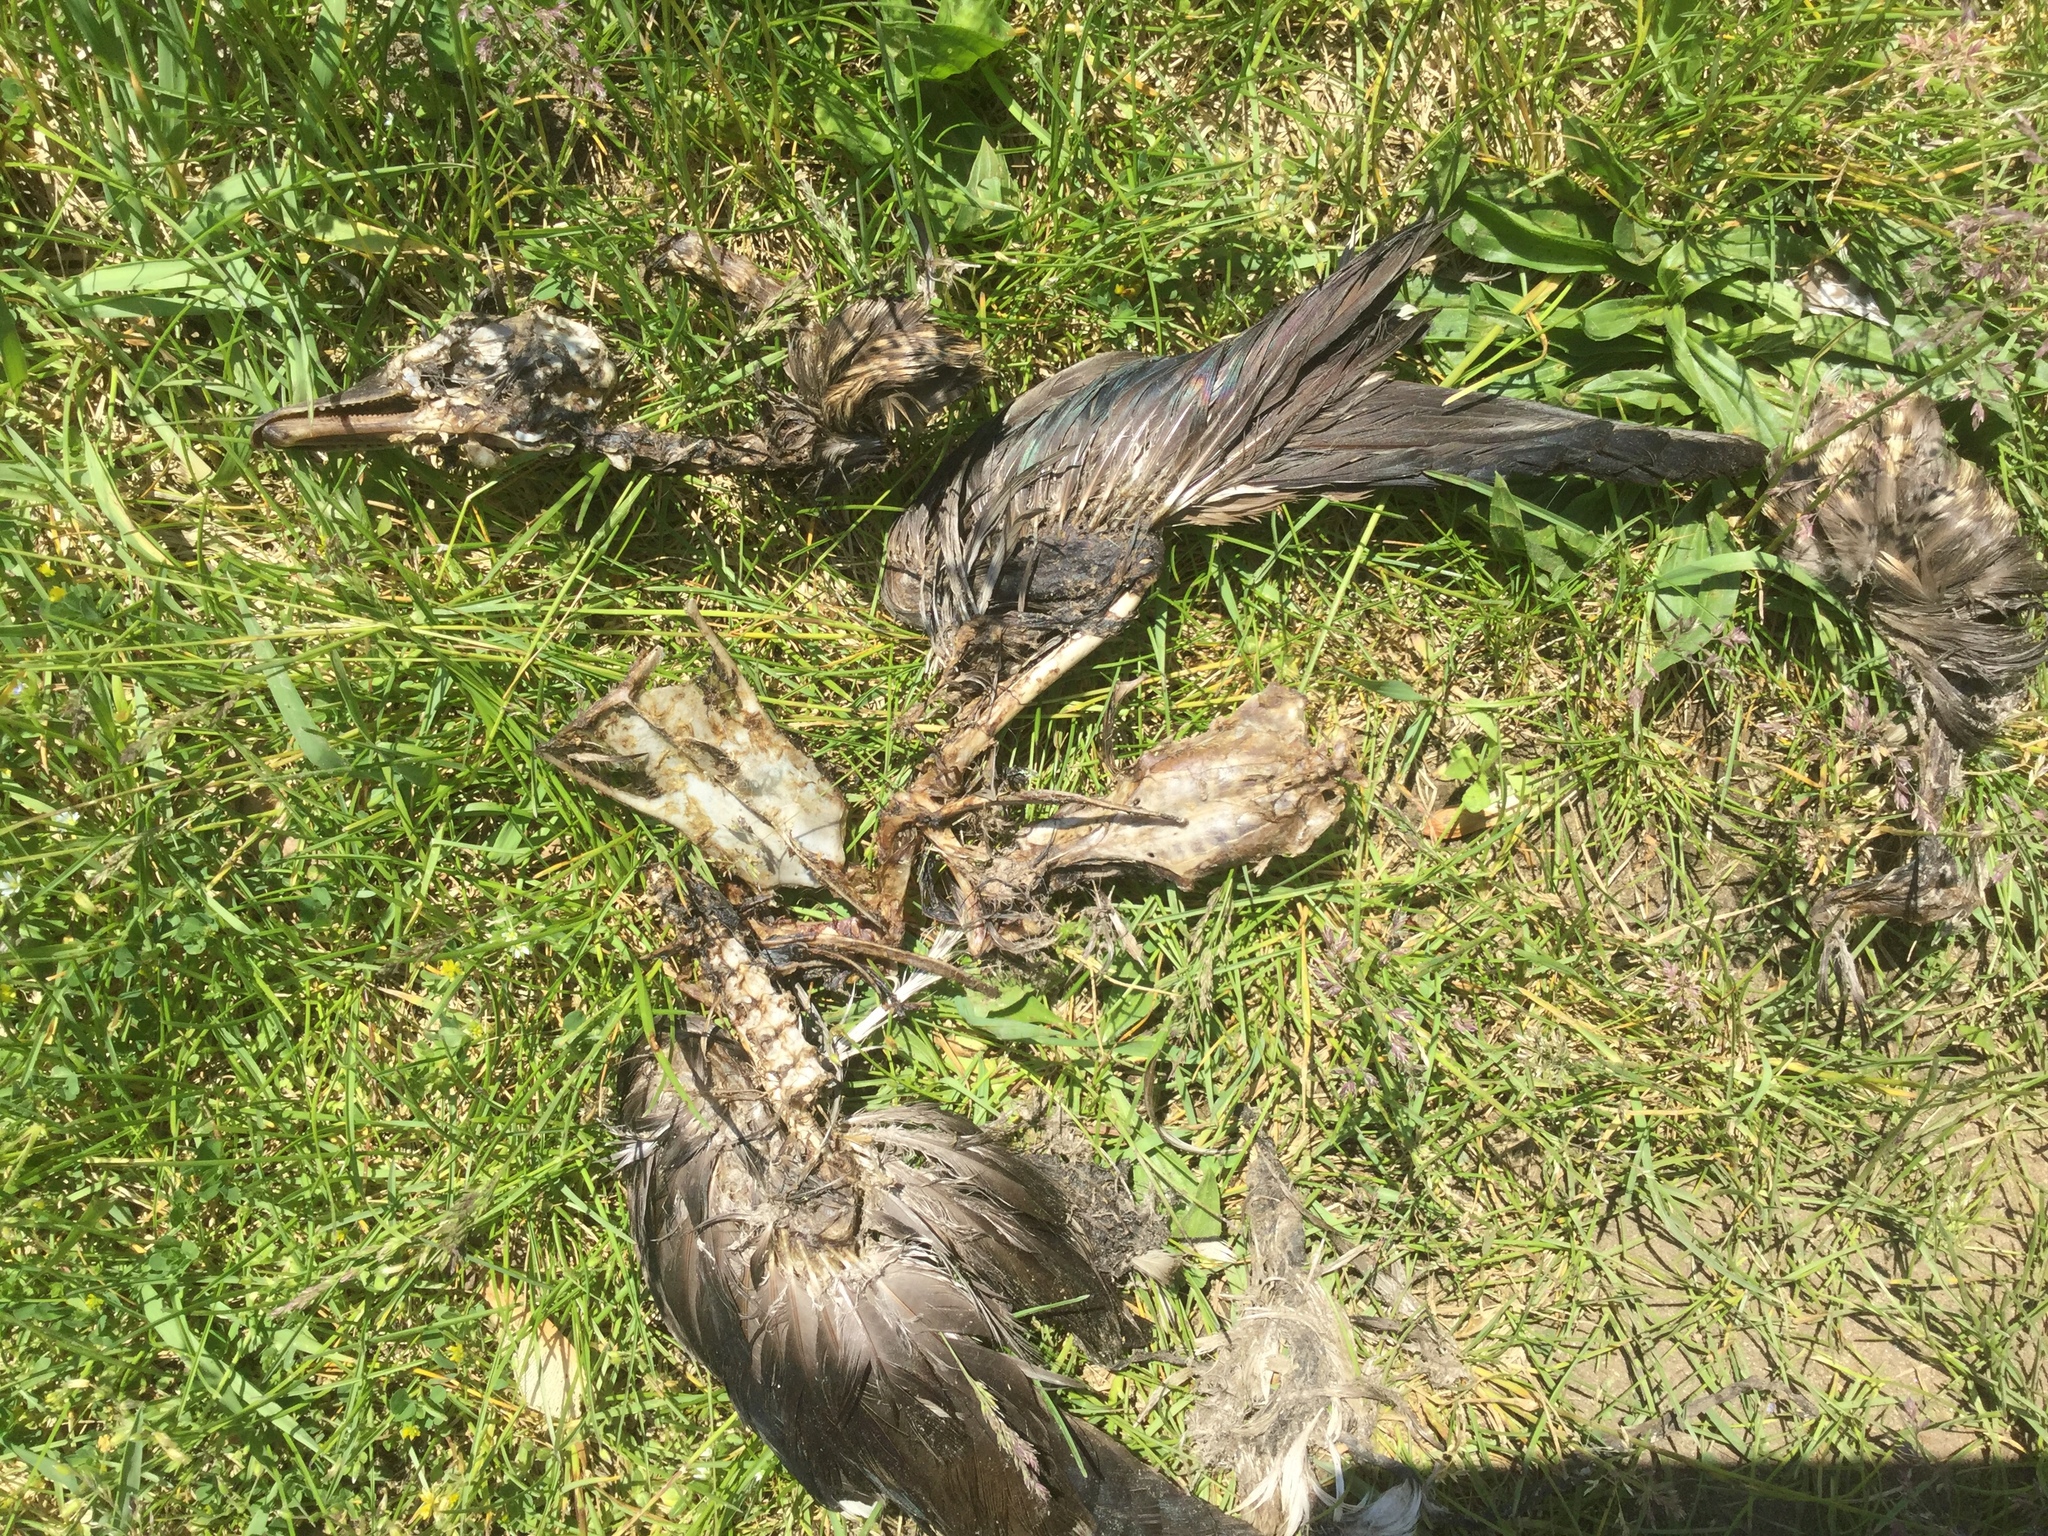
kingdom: Animalia
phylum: Chordata
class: Aves
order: Anseriformes
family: Anatidae
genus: Aix
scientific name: Aix sponsa
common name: Wood duck
